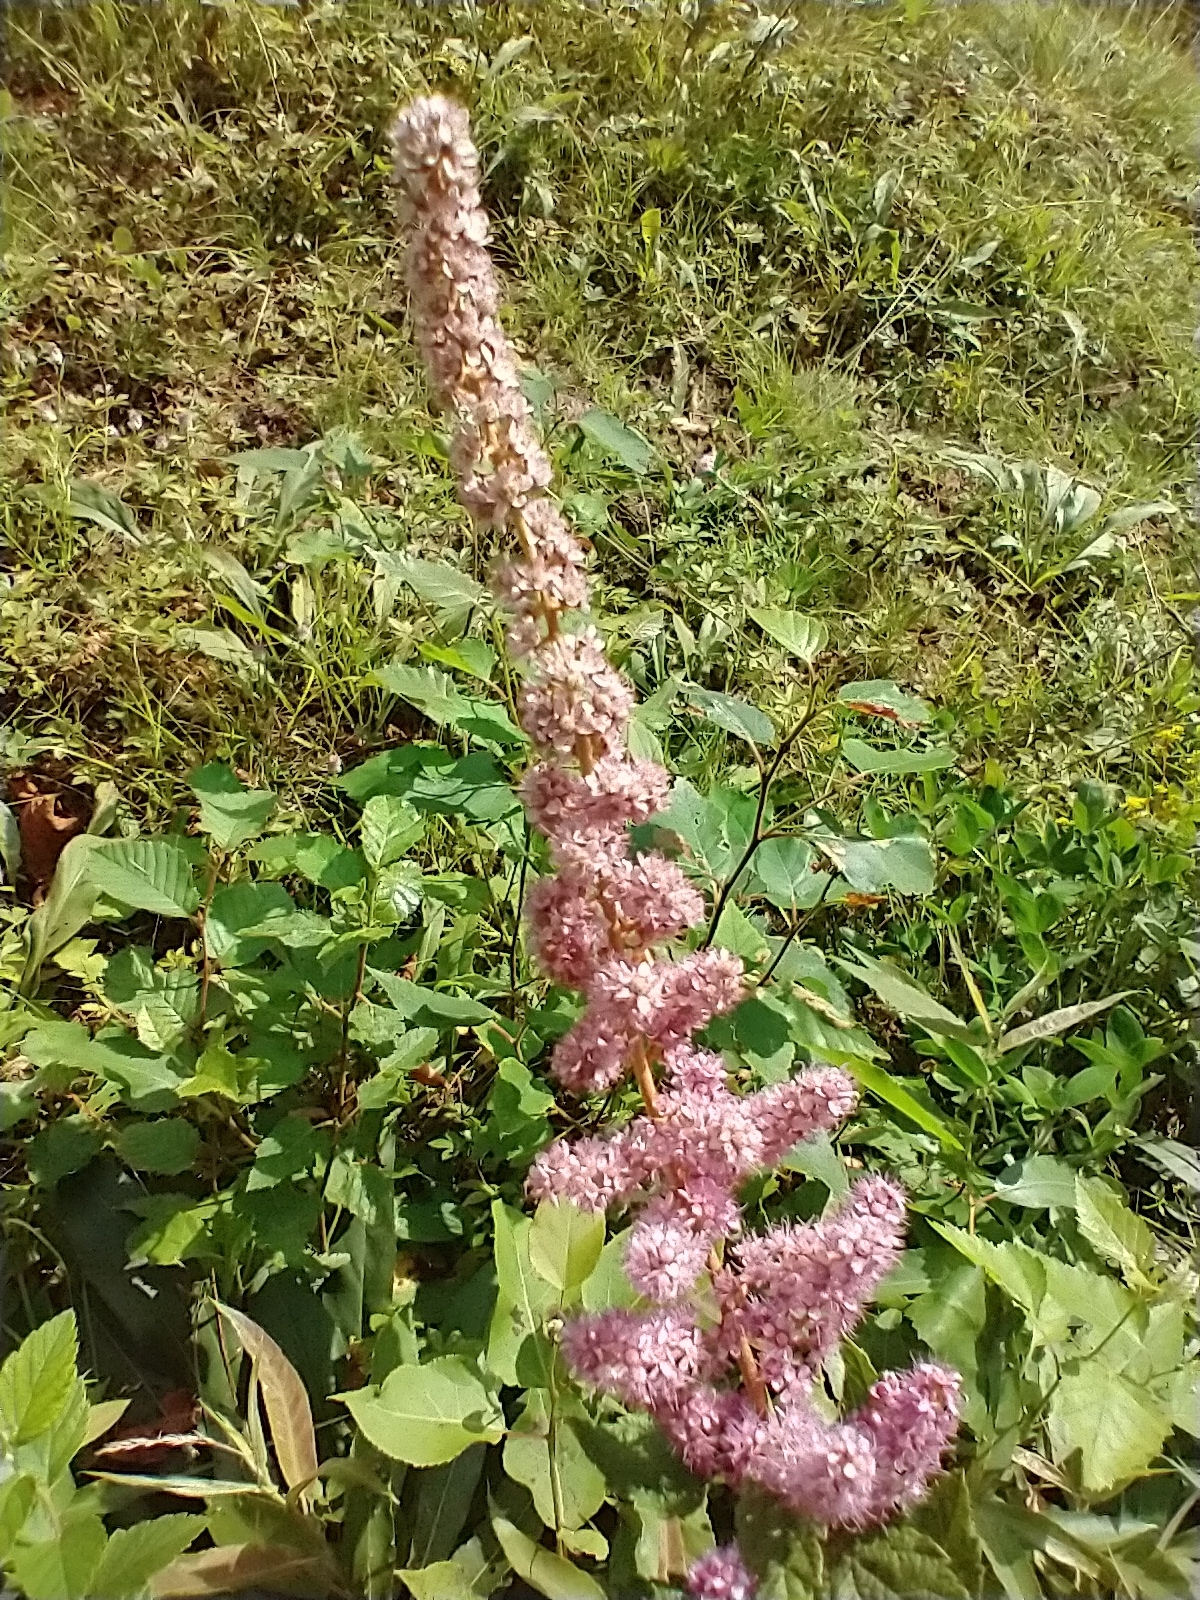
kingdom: Plantae
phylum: Tracheophyta
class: Magnoliopsida
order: Rosales
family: Rosaceae
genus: Spiraea
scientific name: Spiraea tomentosa
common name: Hardhack
